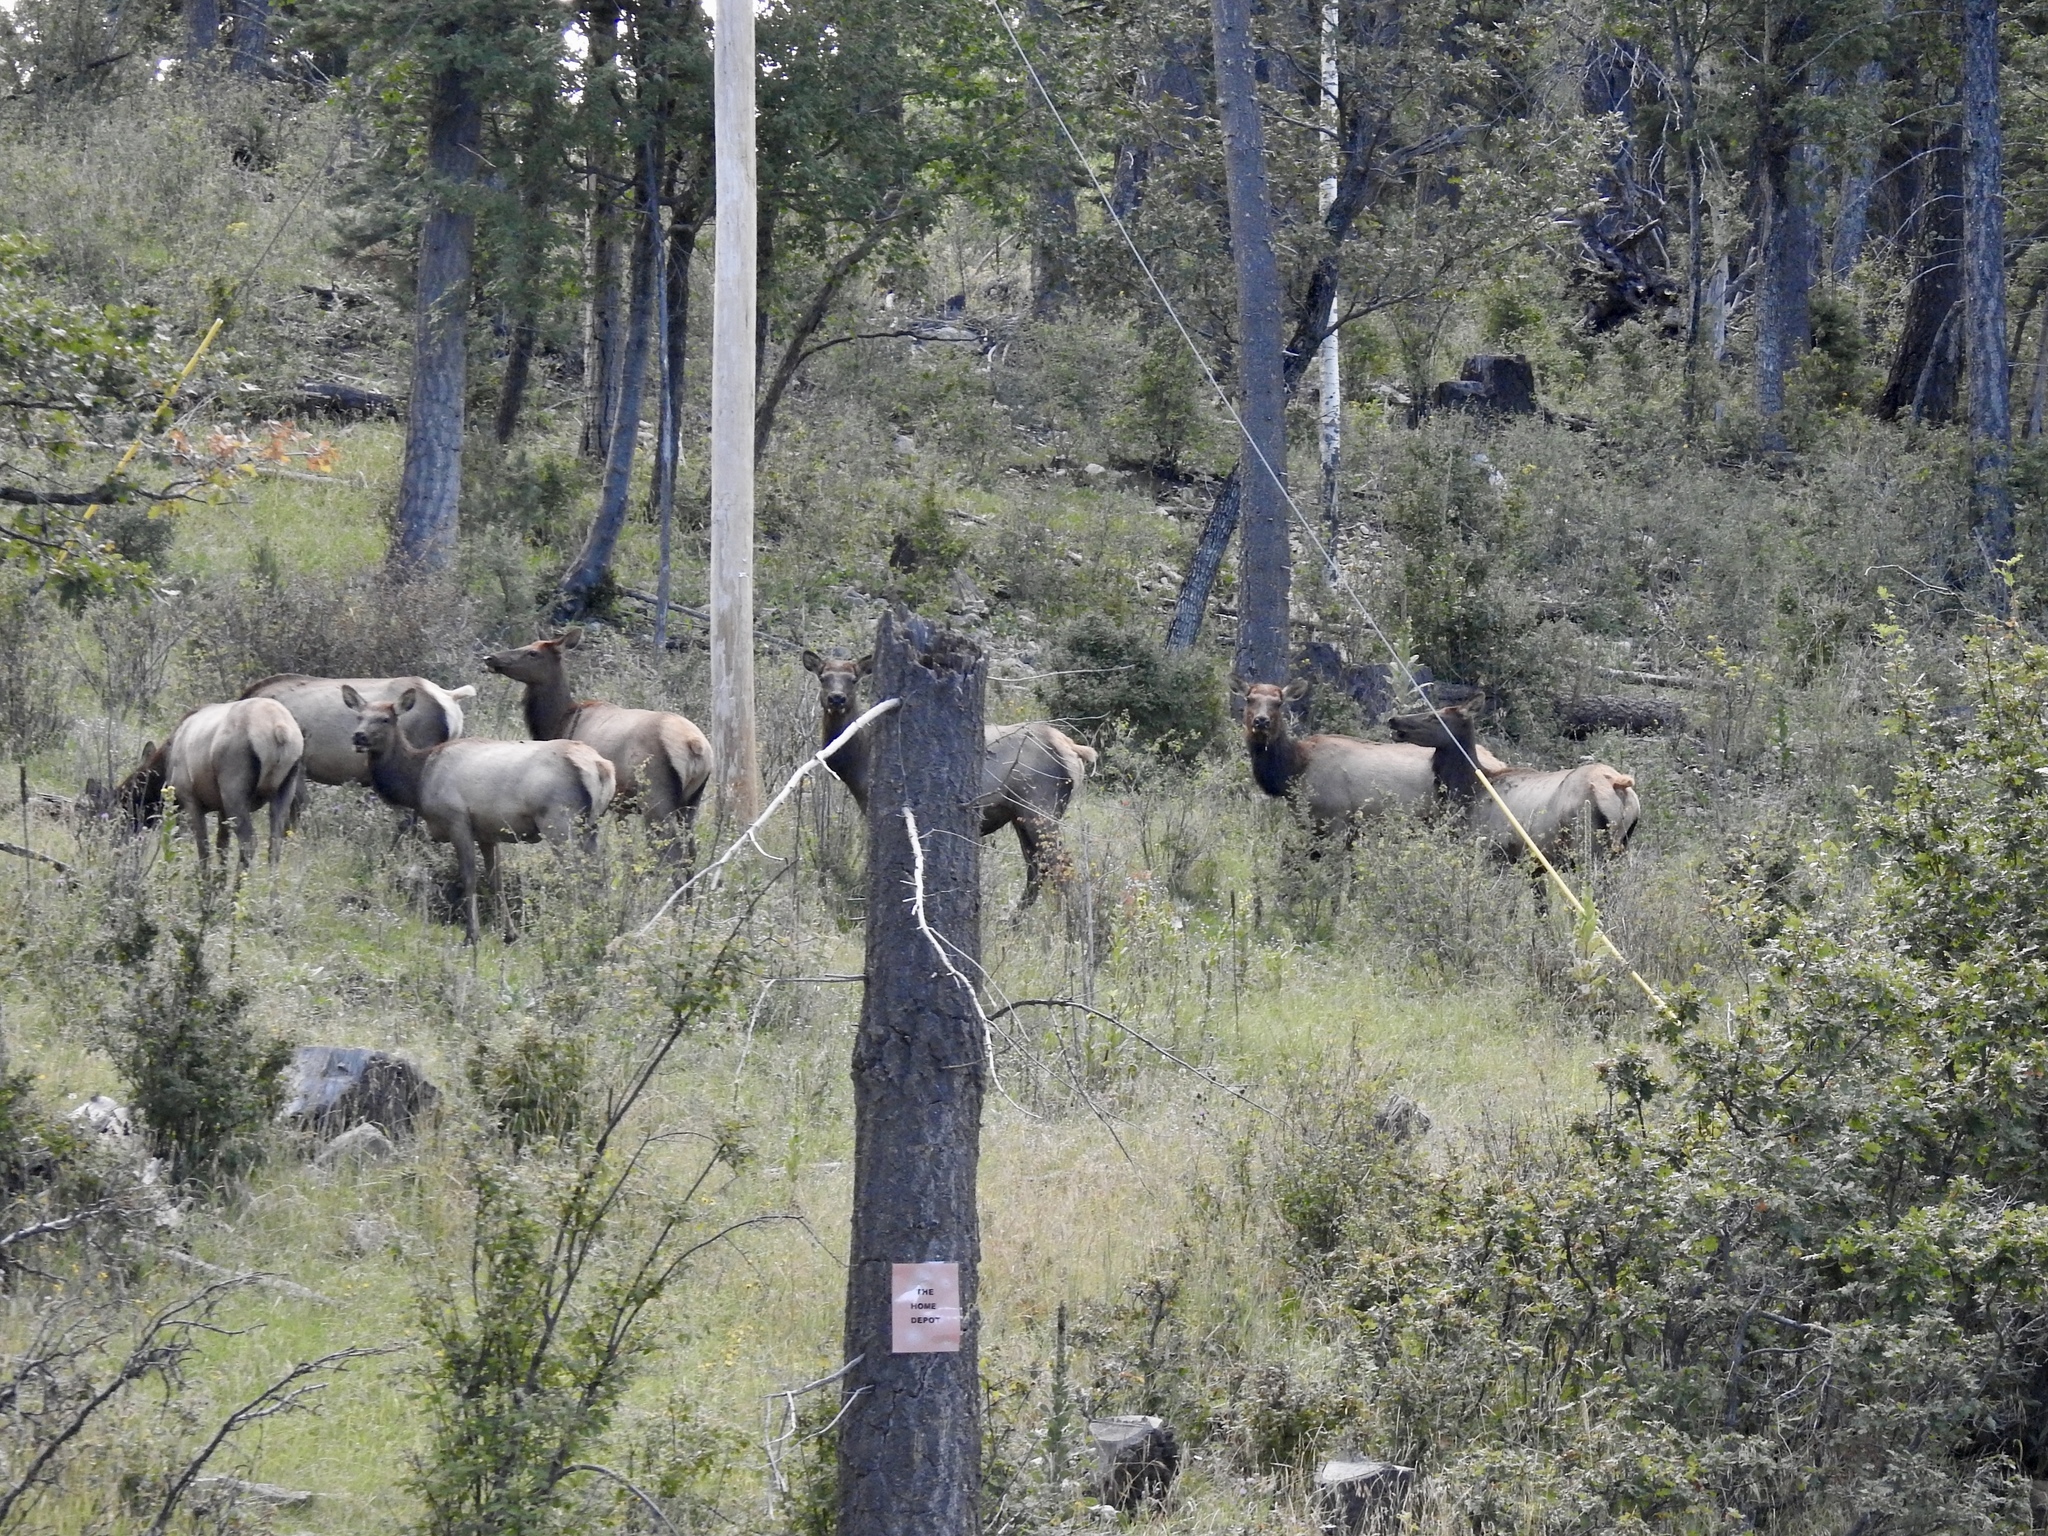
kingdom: Animalia
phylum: Chordata
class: Mammalia
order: Artiodactyla
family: Cervidae
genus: Cervus
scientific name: Cervus elaphus
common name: Red deer
